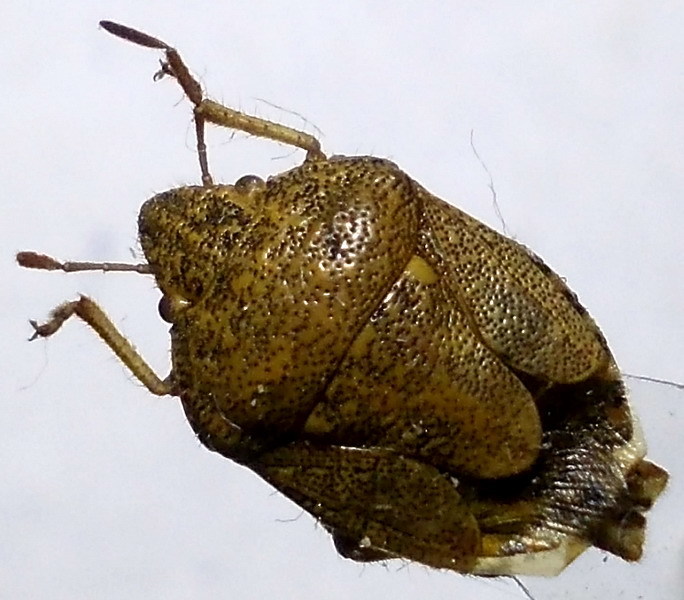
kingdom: Animalia
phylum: Arthropoda
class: Insecta
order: Hemiptera
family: Pentatomidae
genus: Staria
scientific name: Staria lunata
